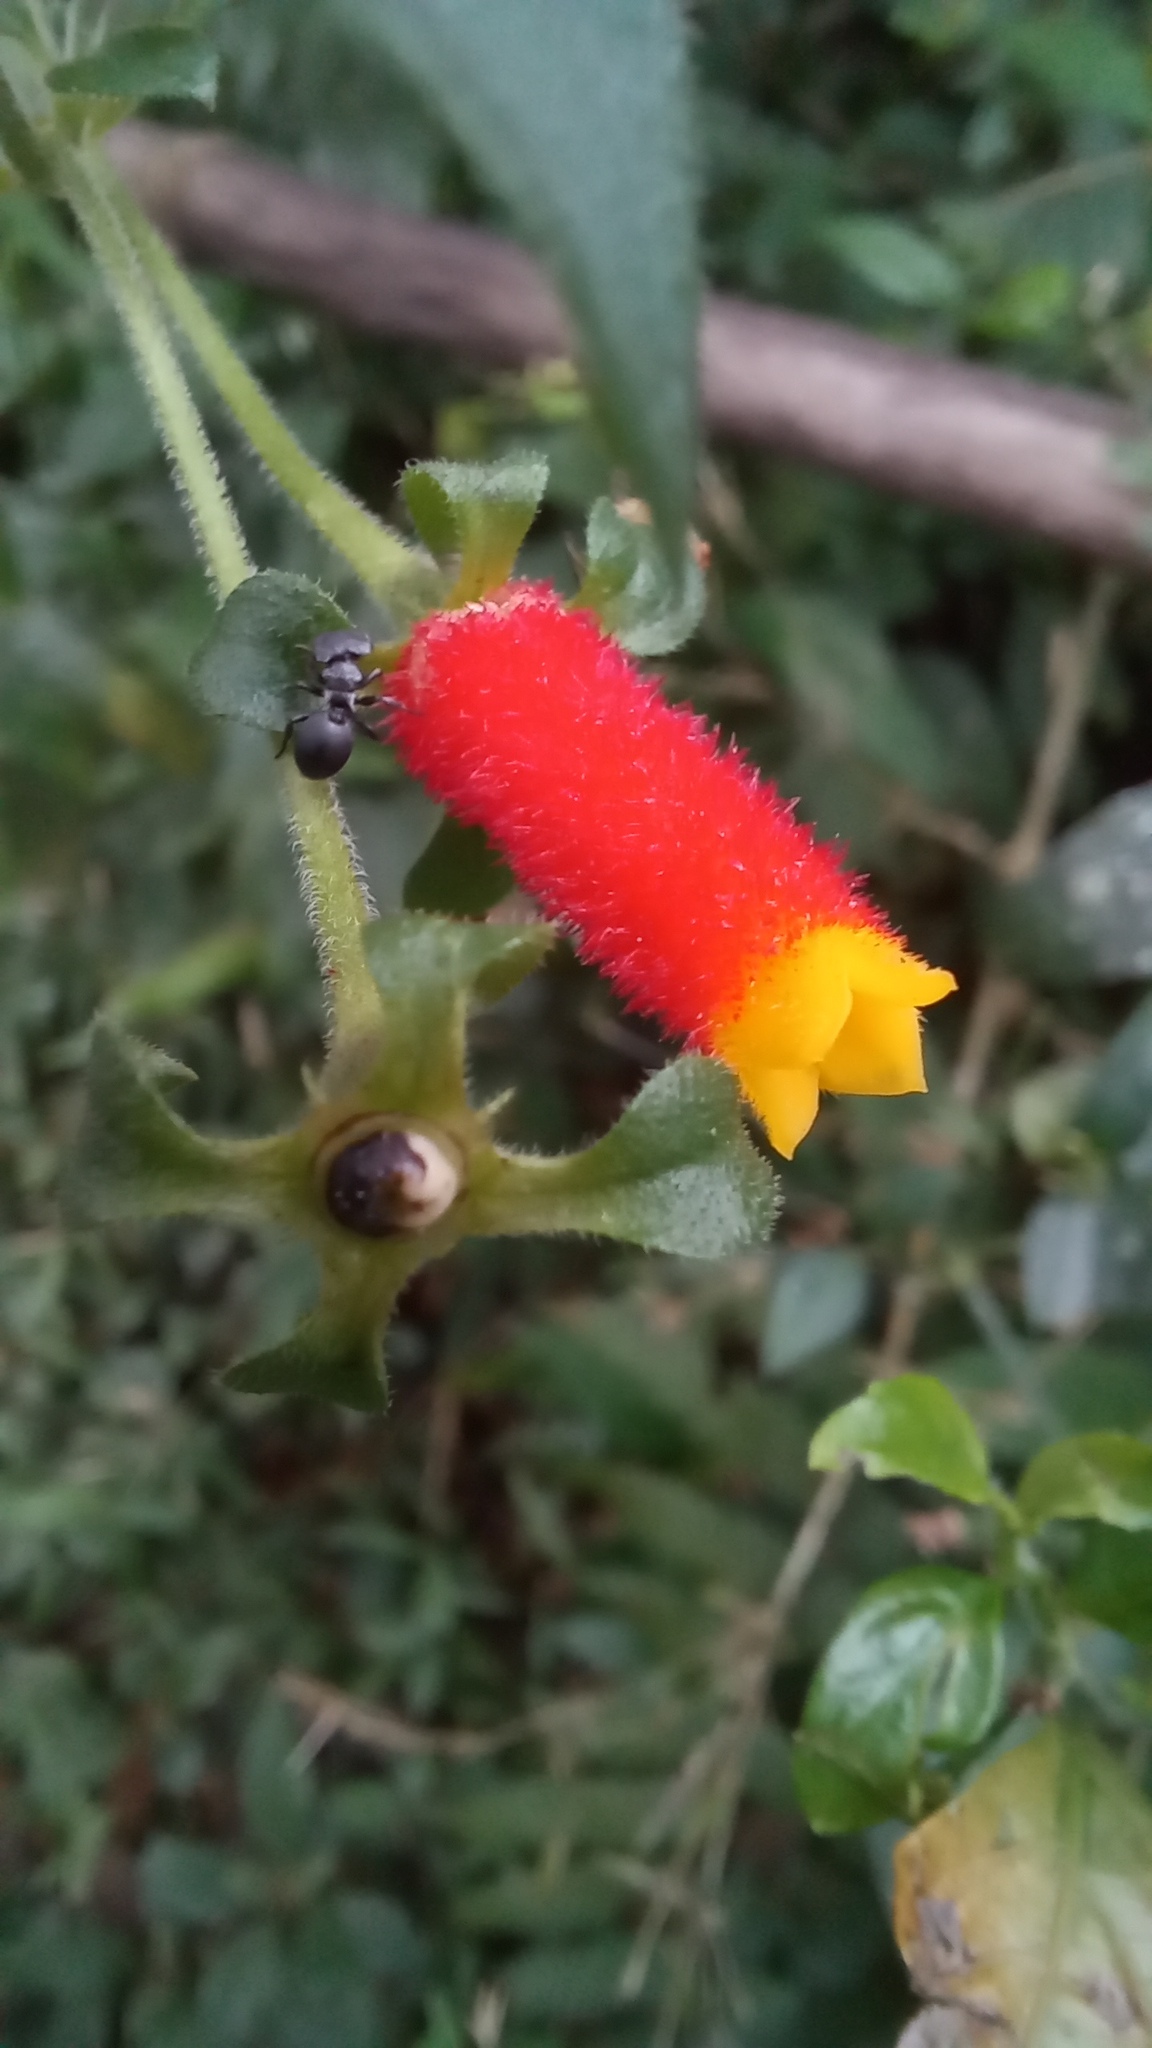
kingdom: Plantae
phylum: Tracheophyta
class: Magnoliopsida
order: Gentianales
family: Rubiaceae
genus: Manettia
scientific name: Manettia paraguariensis
